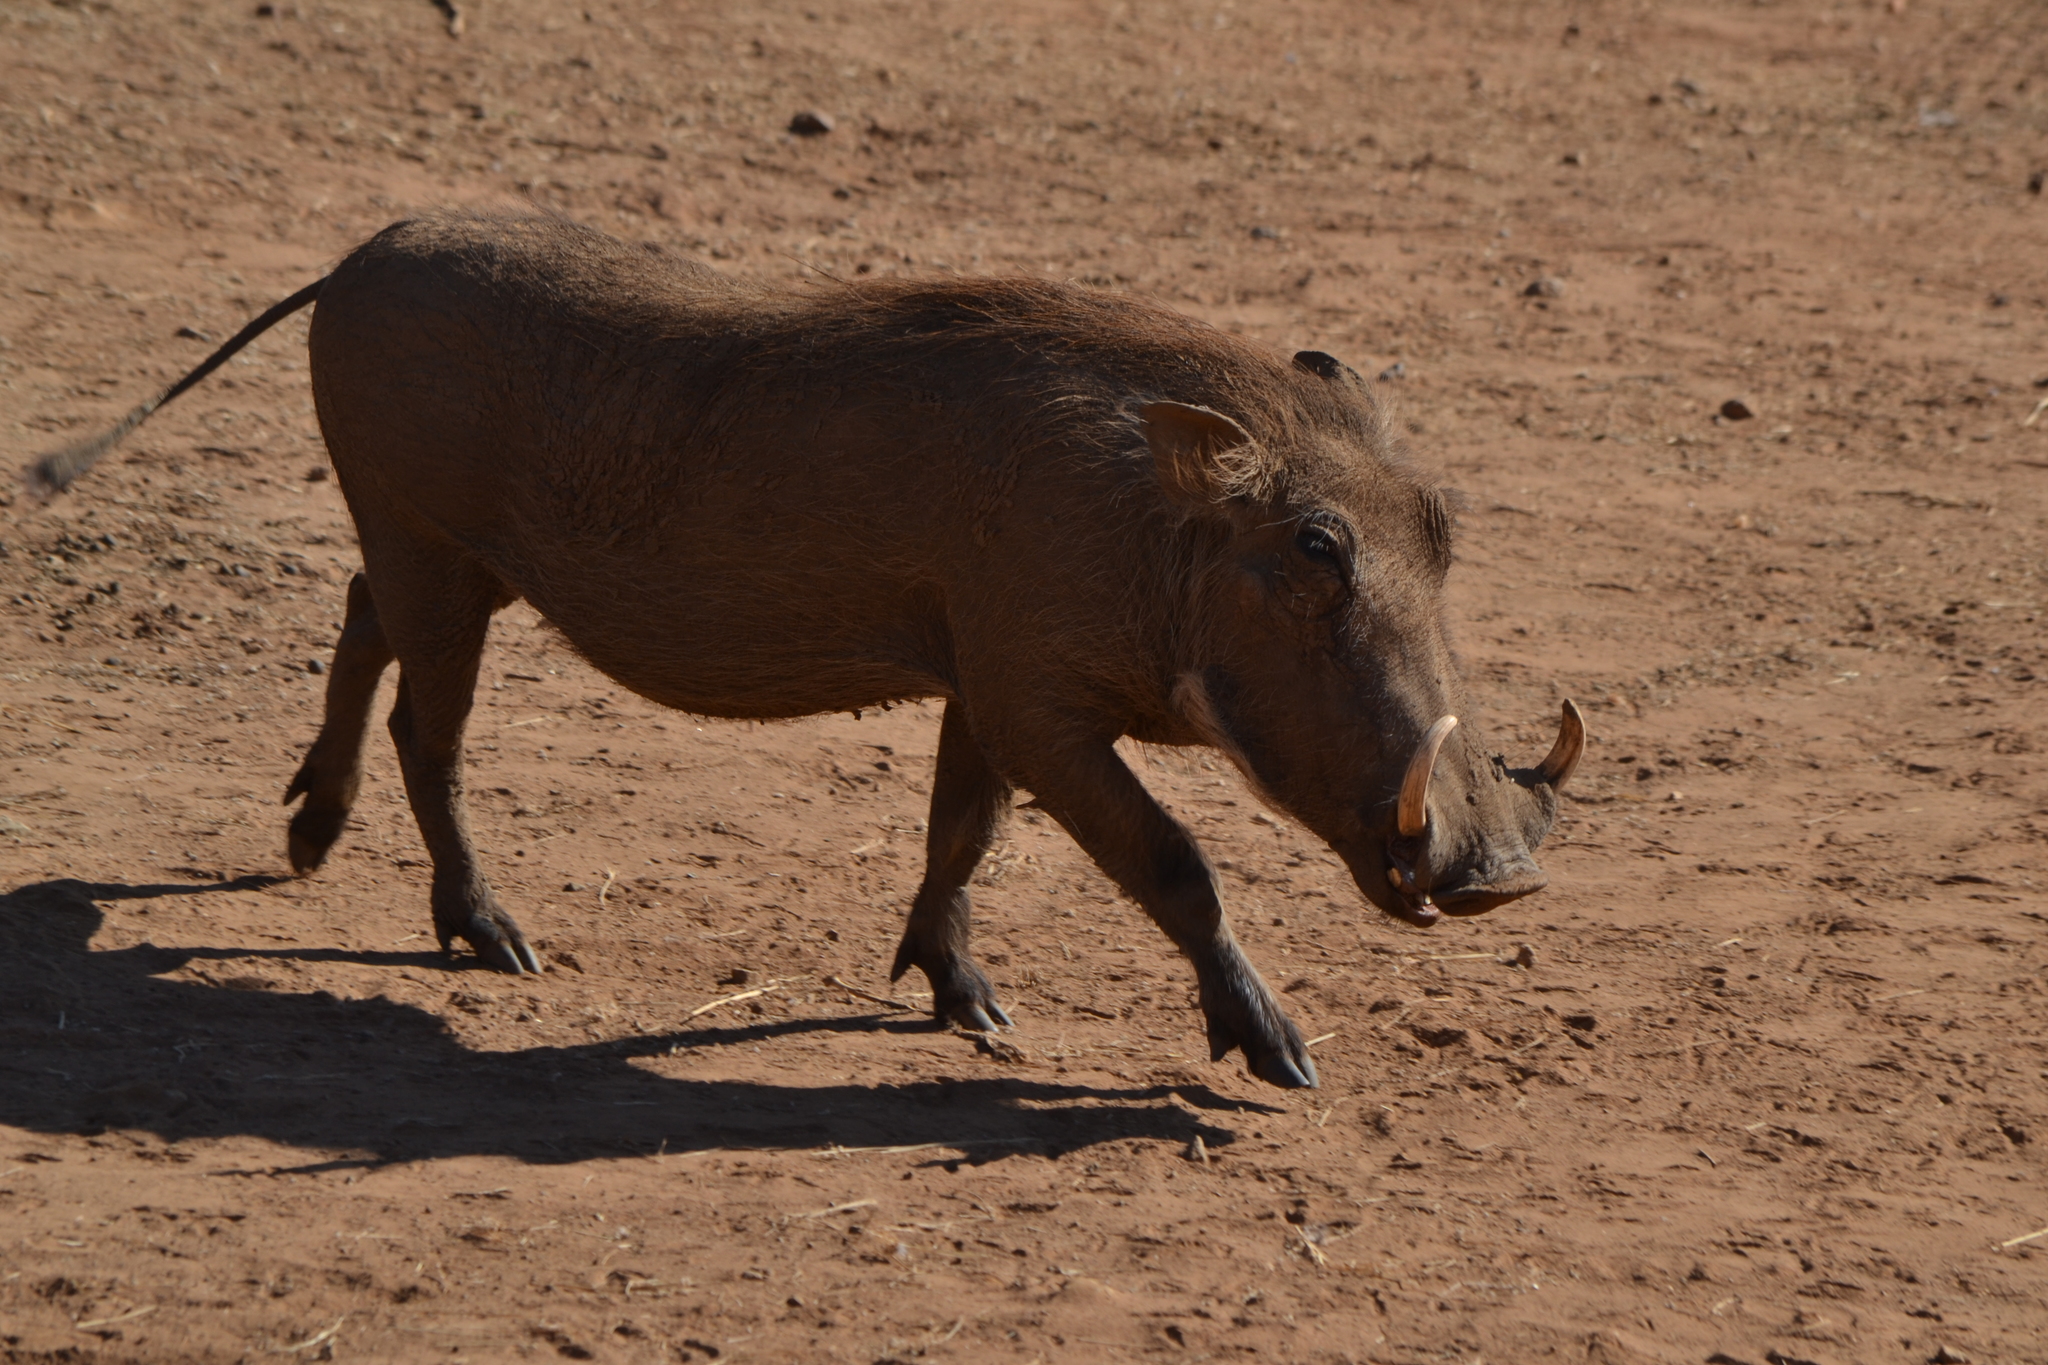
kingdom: Animalia
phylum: Chordata
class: Mammalia
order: Artiodactyla
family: Suidae
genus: Phacochoerus
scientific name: Phacochoerus africanus
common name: Common warthog
